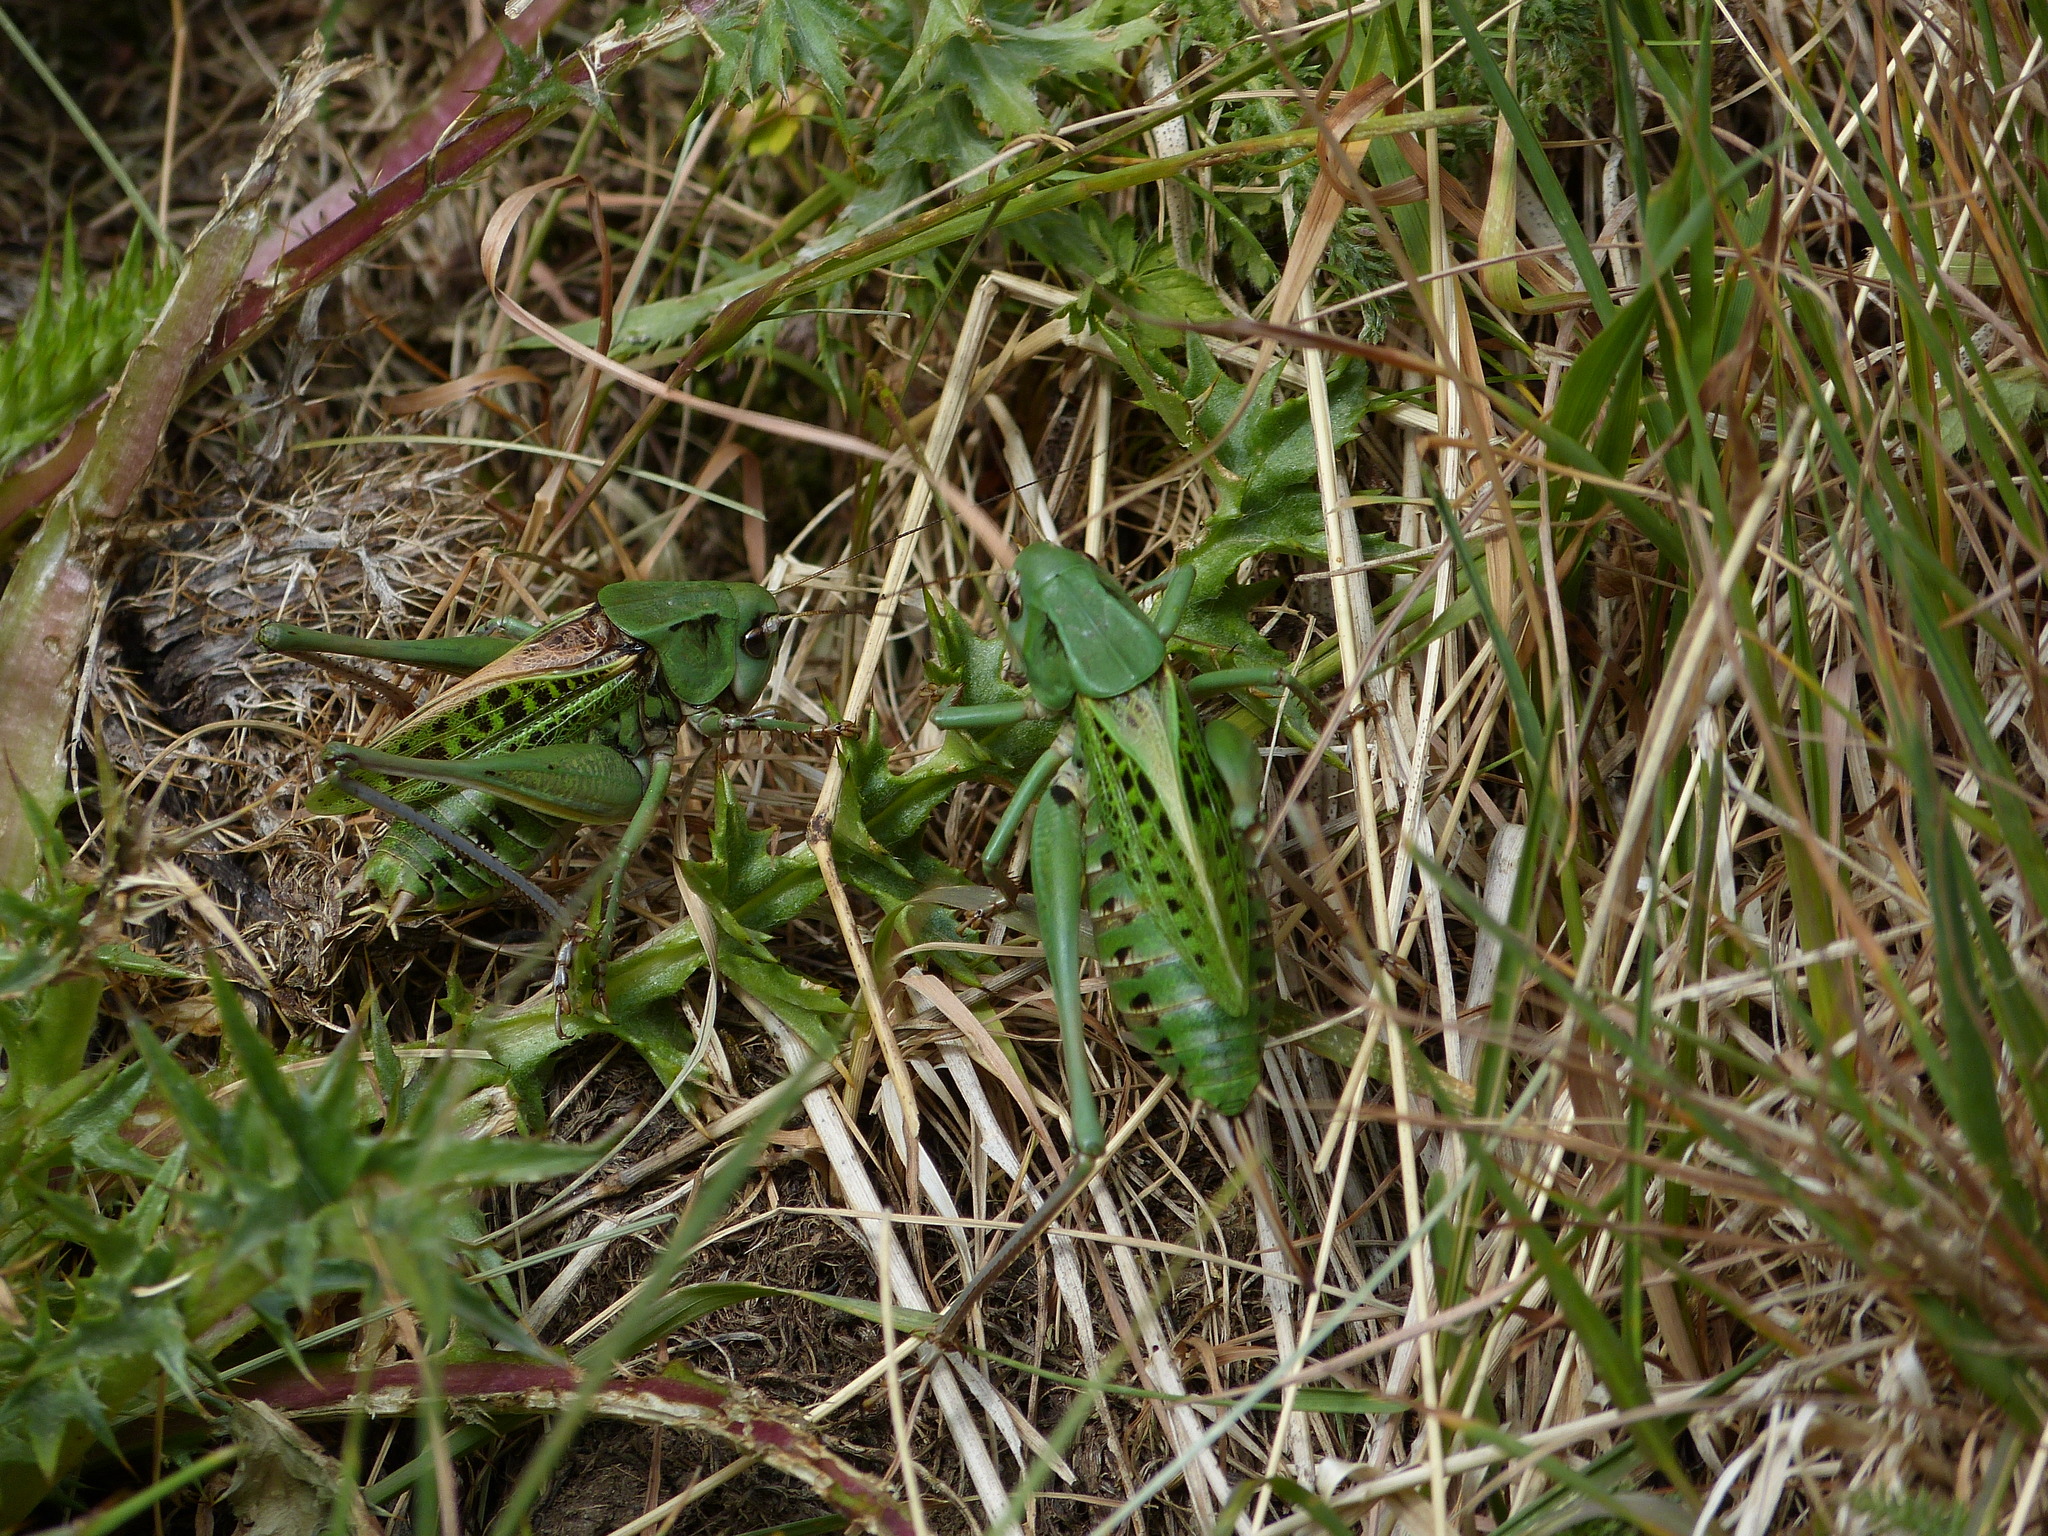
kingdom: Animalia
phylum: Arthropoda
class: Insecta
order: Orthoptera
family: Tettigoniidae
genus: Decticus
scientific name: Decticus verrucivorus
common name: Wart-biter
